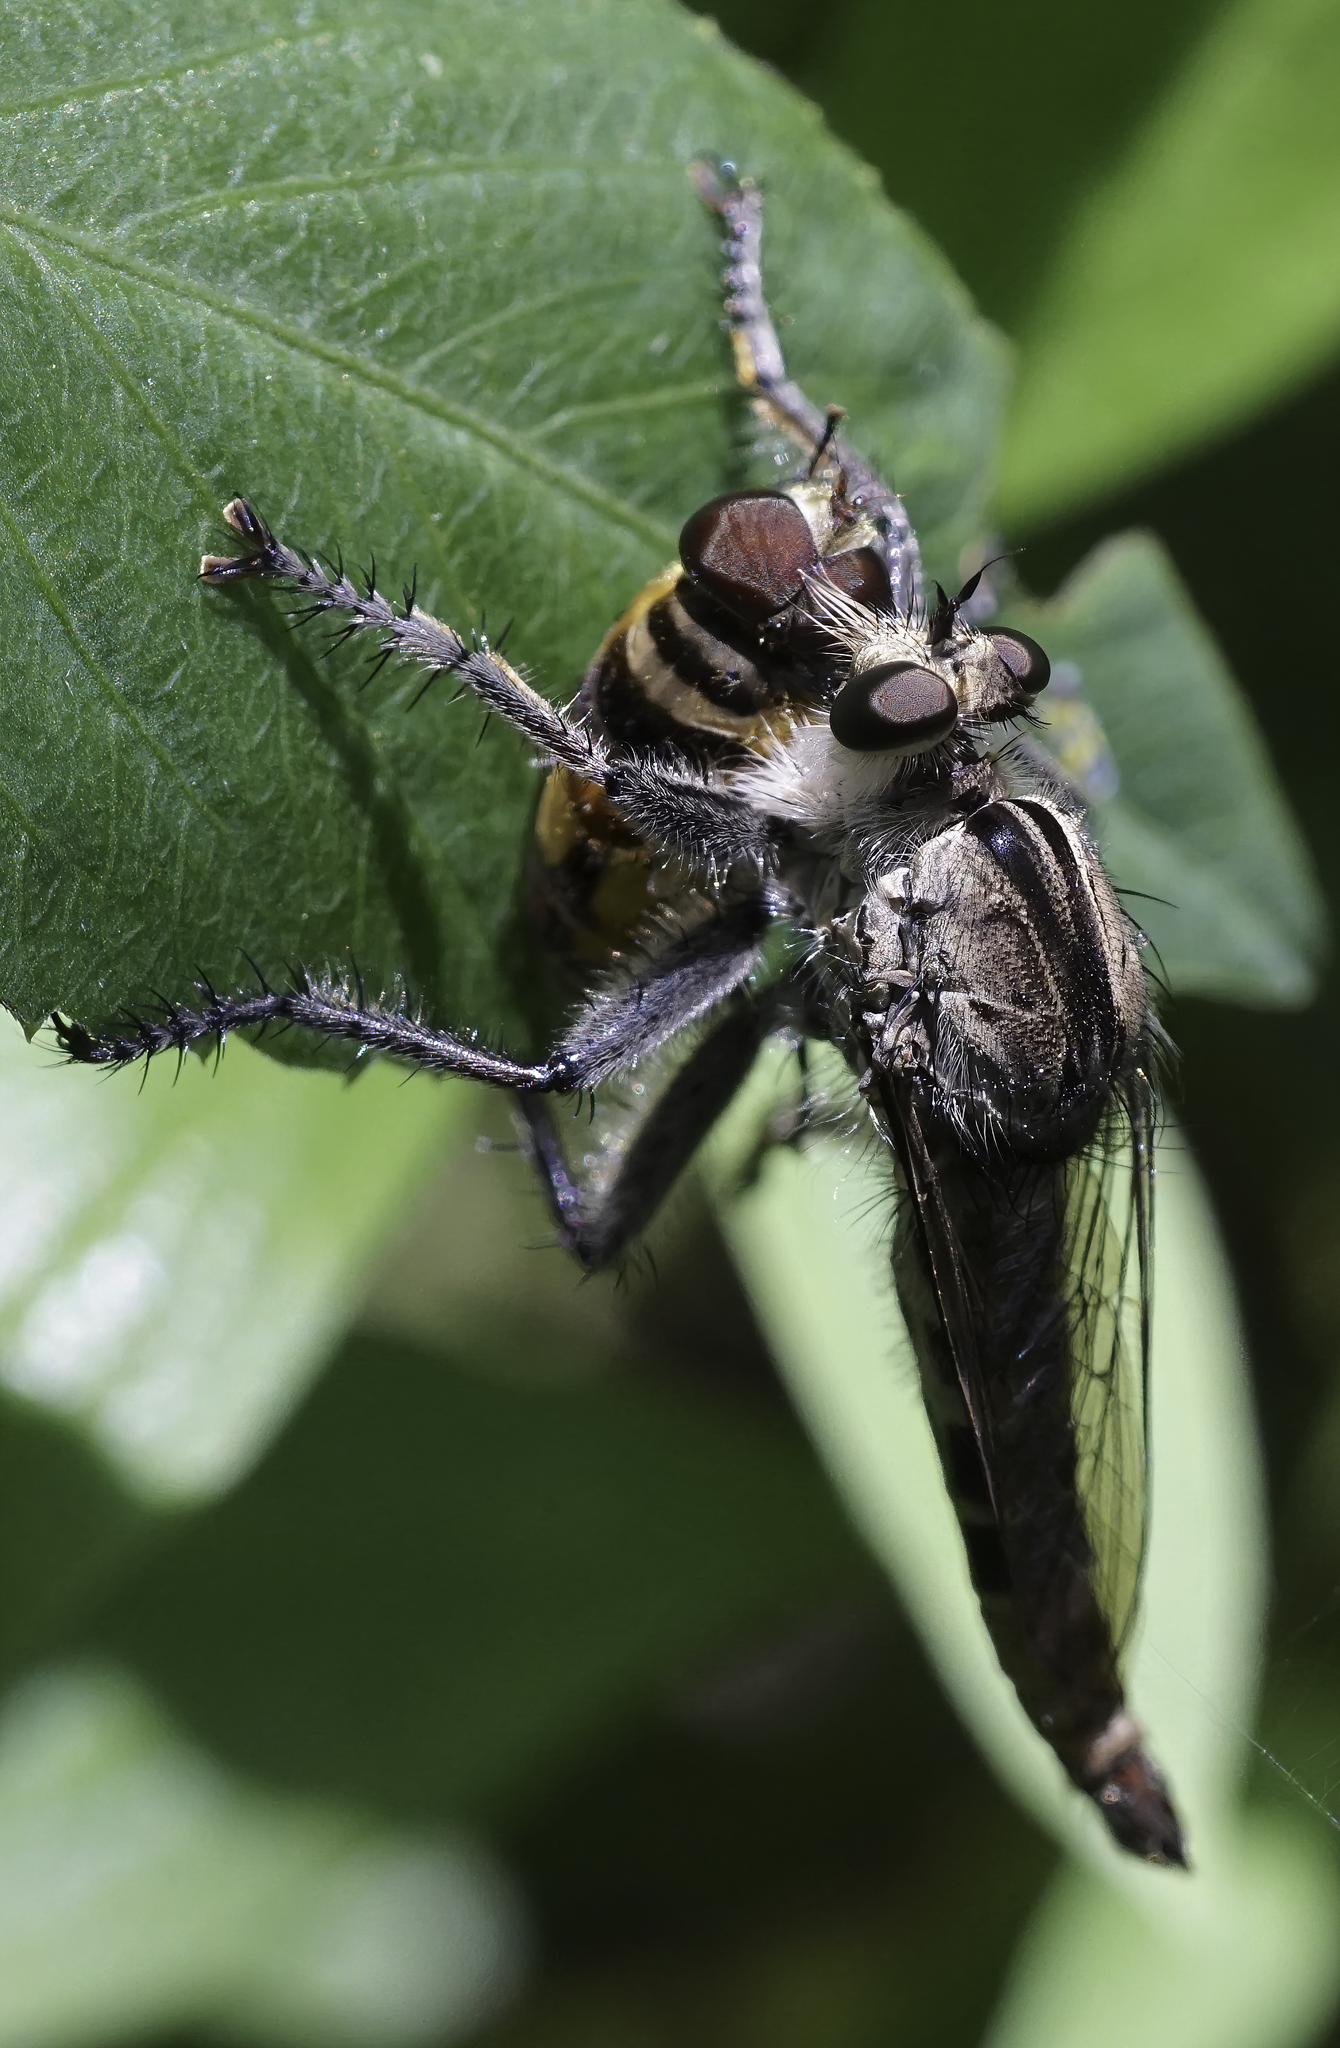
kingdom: Animalia
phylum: Arthropoda
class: Insecta
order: Diptera
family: Asilidae
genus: Triorla
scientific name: Triorla interrupta
